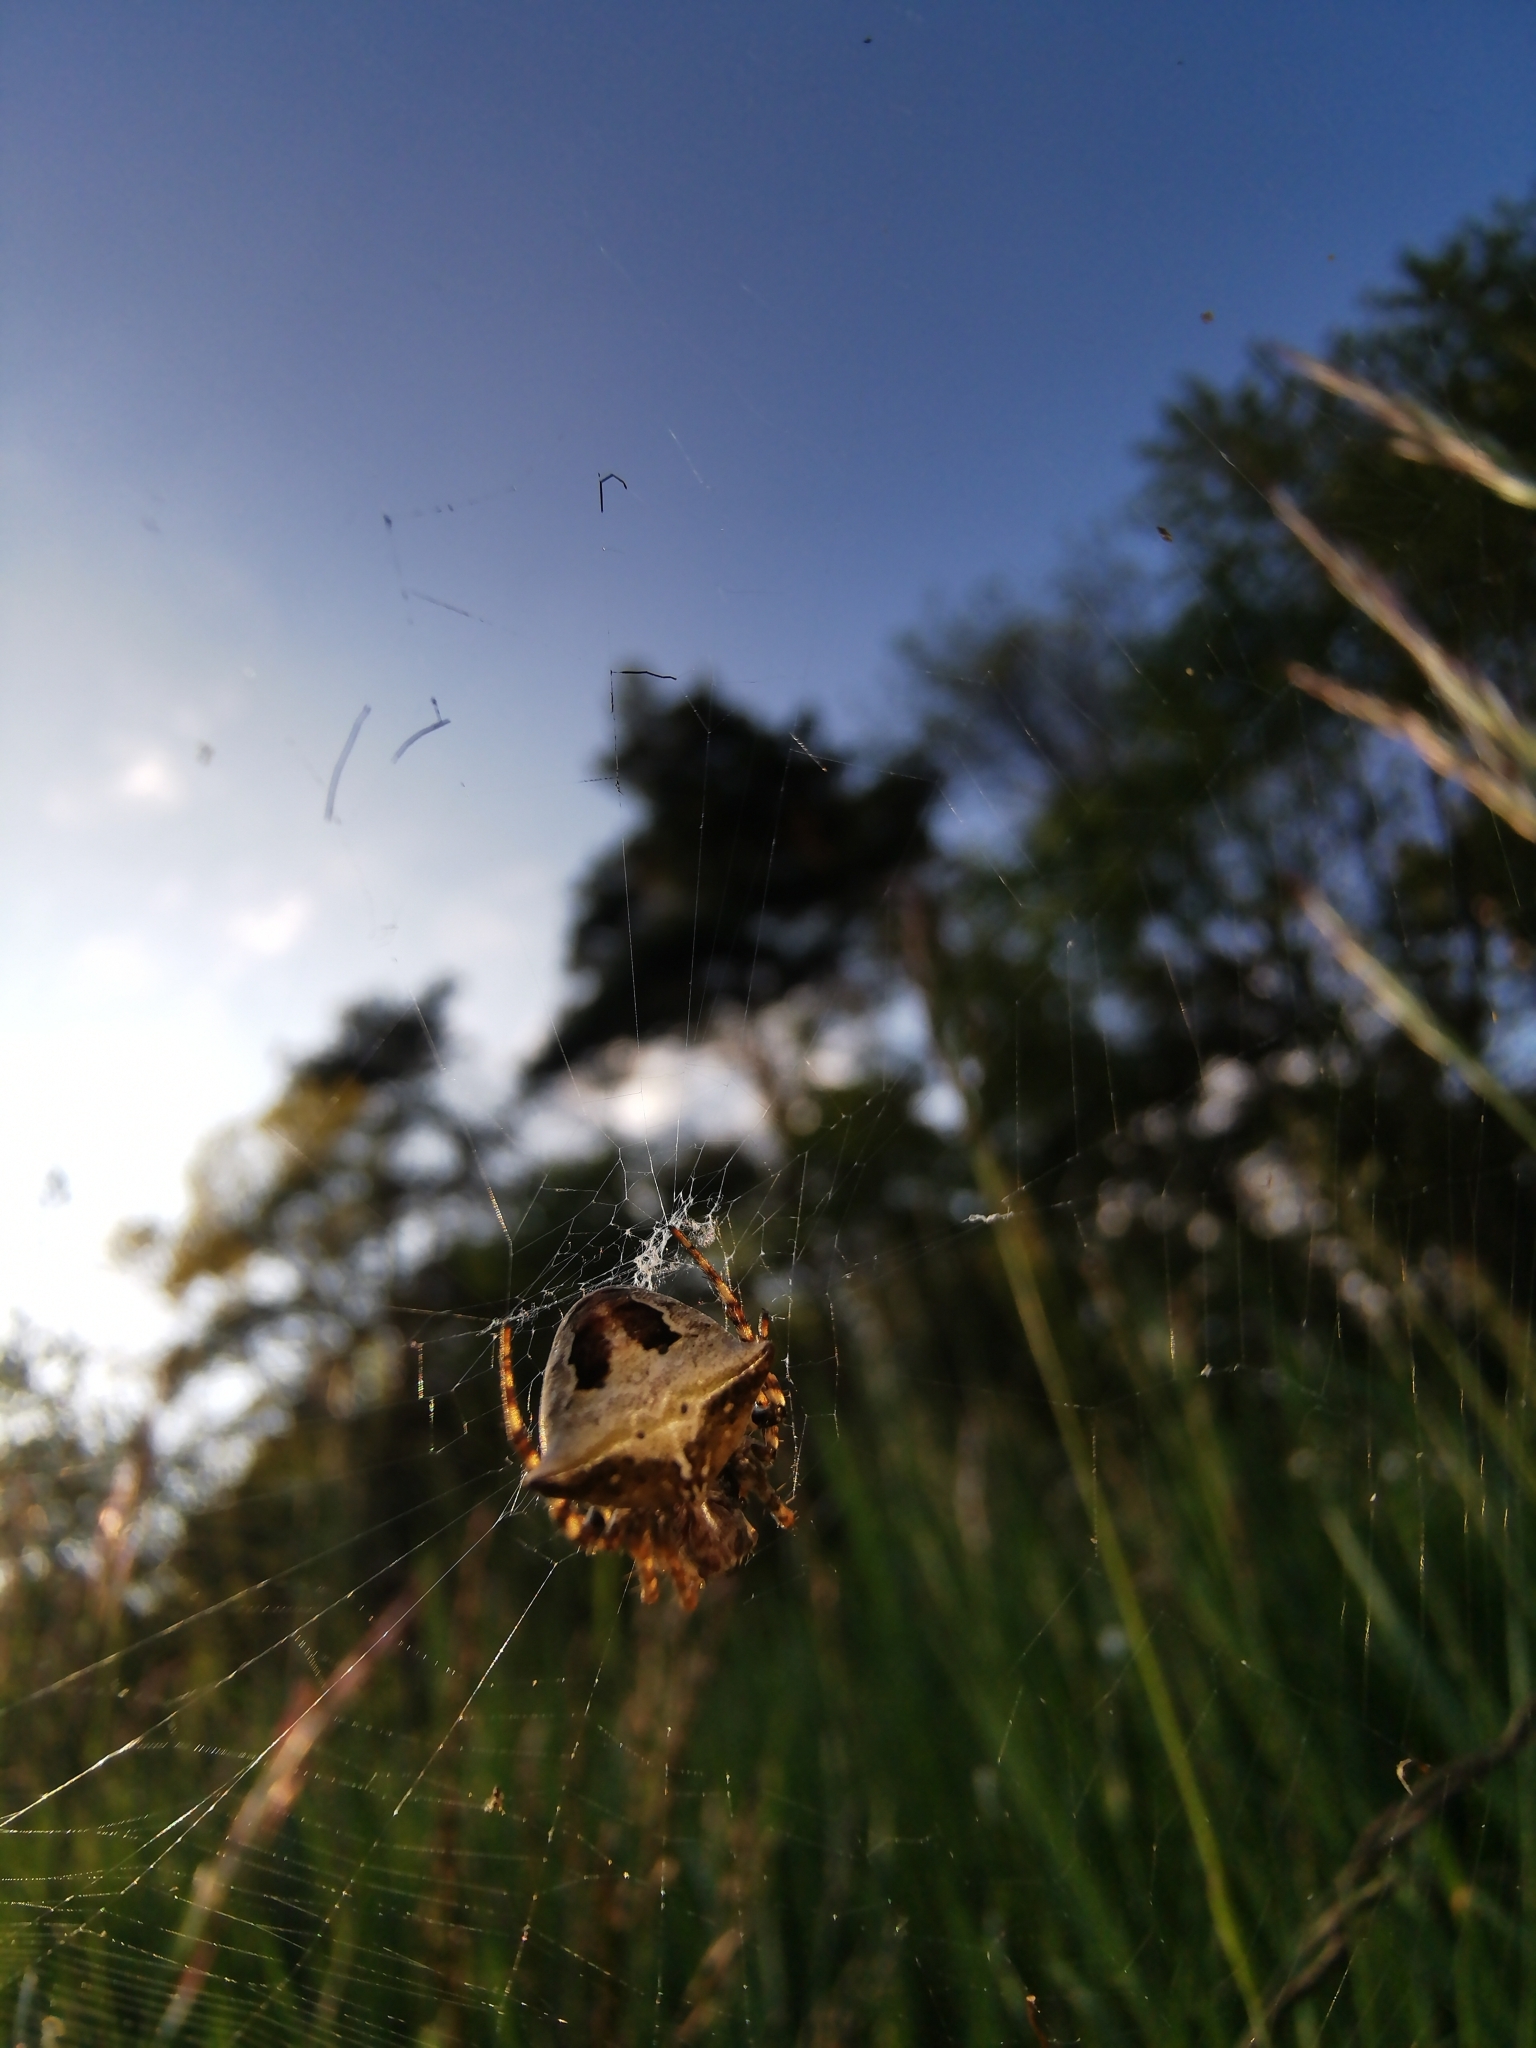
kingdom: Animalia
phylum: Arthropoda
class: Arachnida
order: Araneae
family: Araneidae
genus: Gibbaranea
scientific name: Gibbaranea bituberculata
